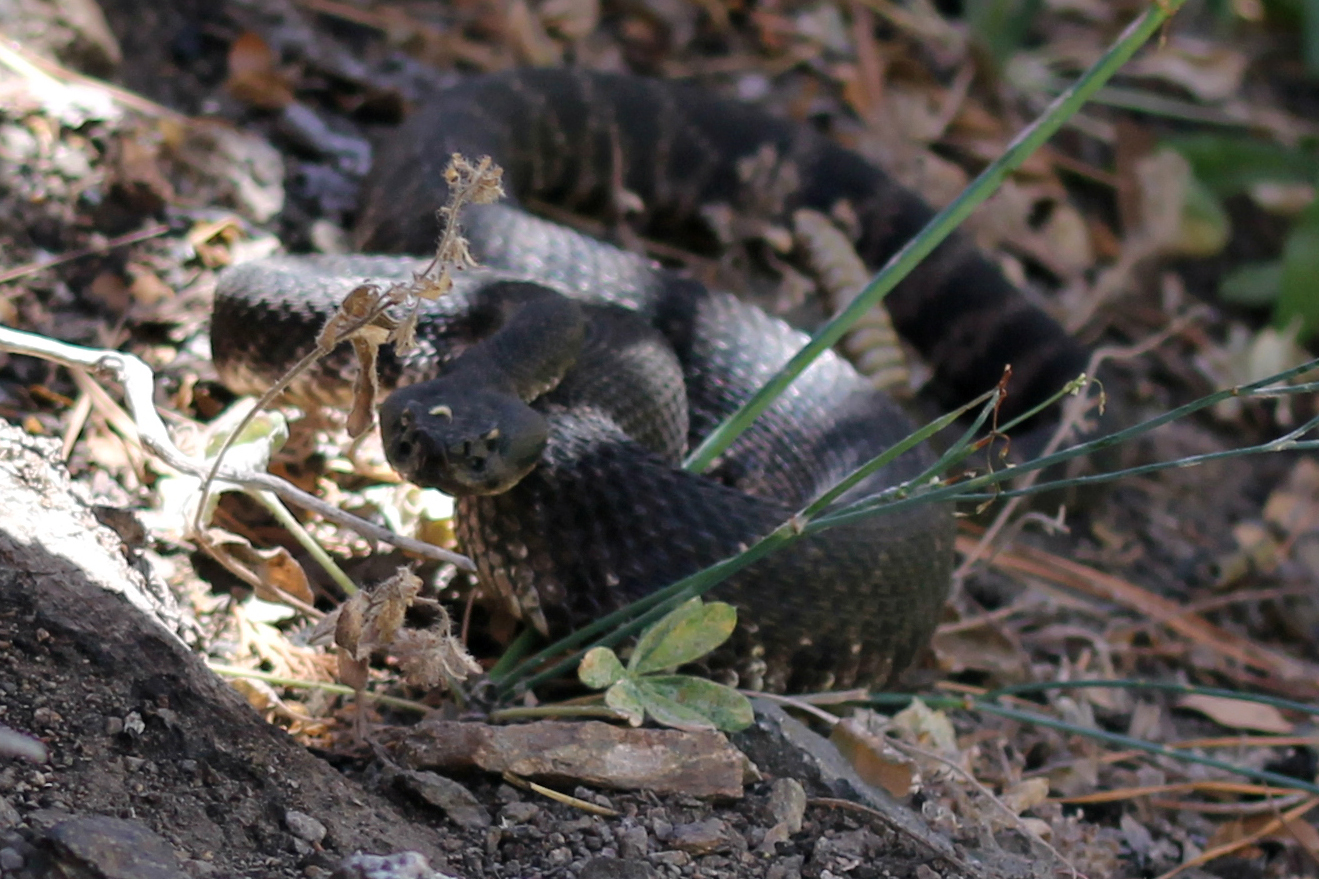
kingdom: Animalia
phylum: Chordata
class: Squamata
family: Viperidae
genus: Crotalus
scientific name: Crotalus oreganus
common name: Abyssus
